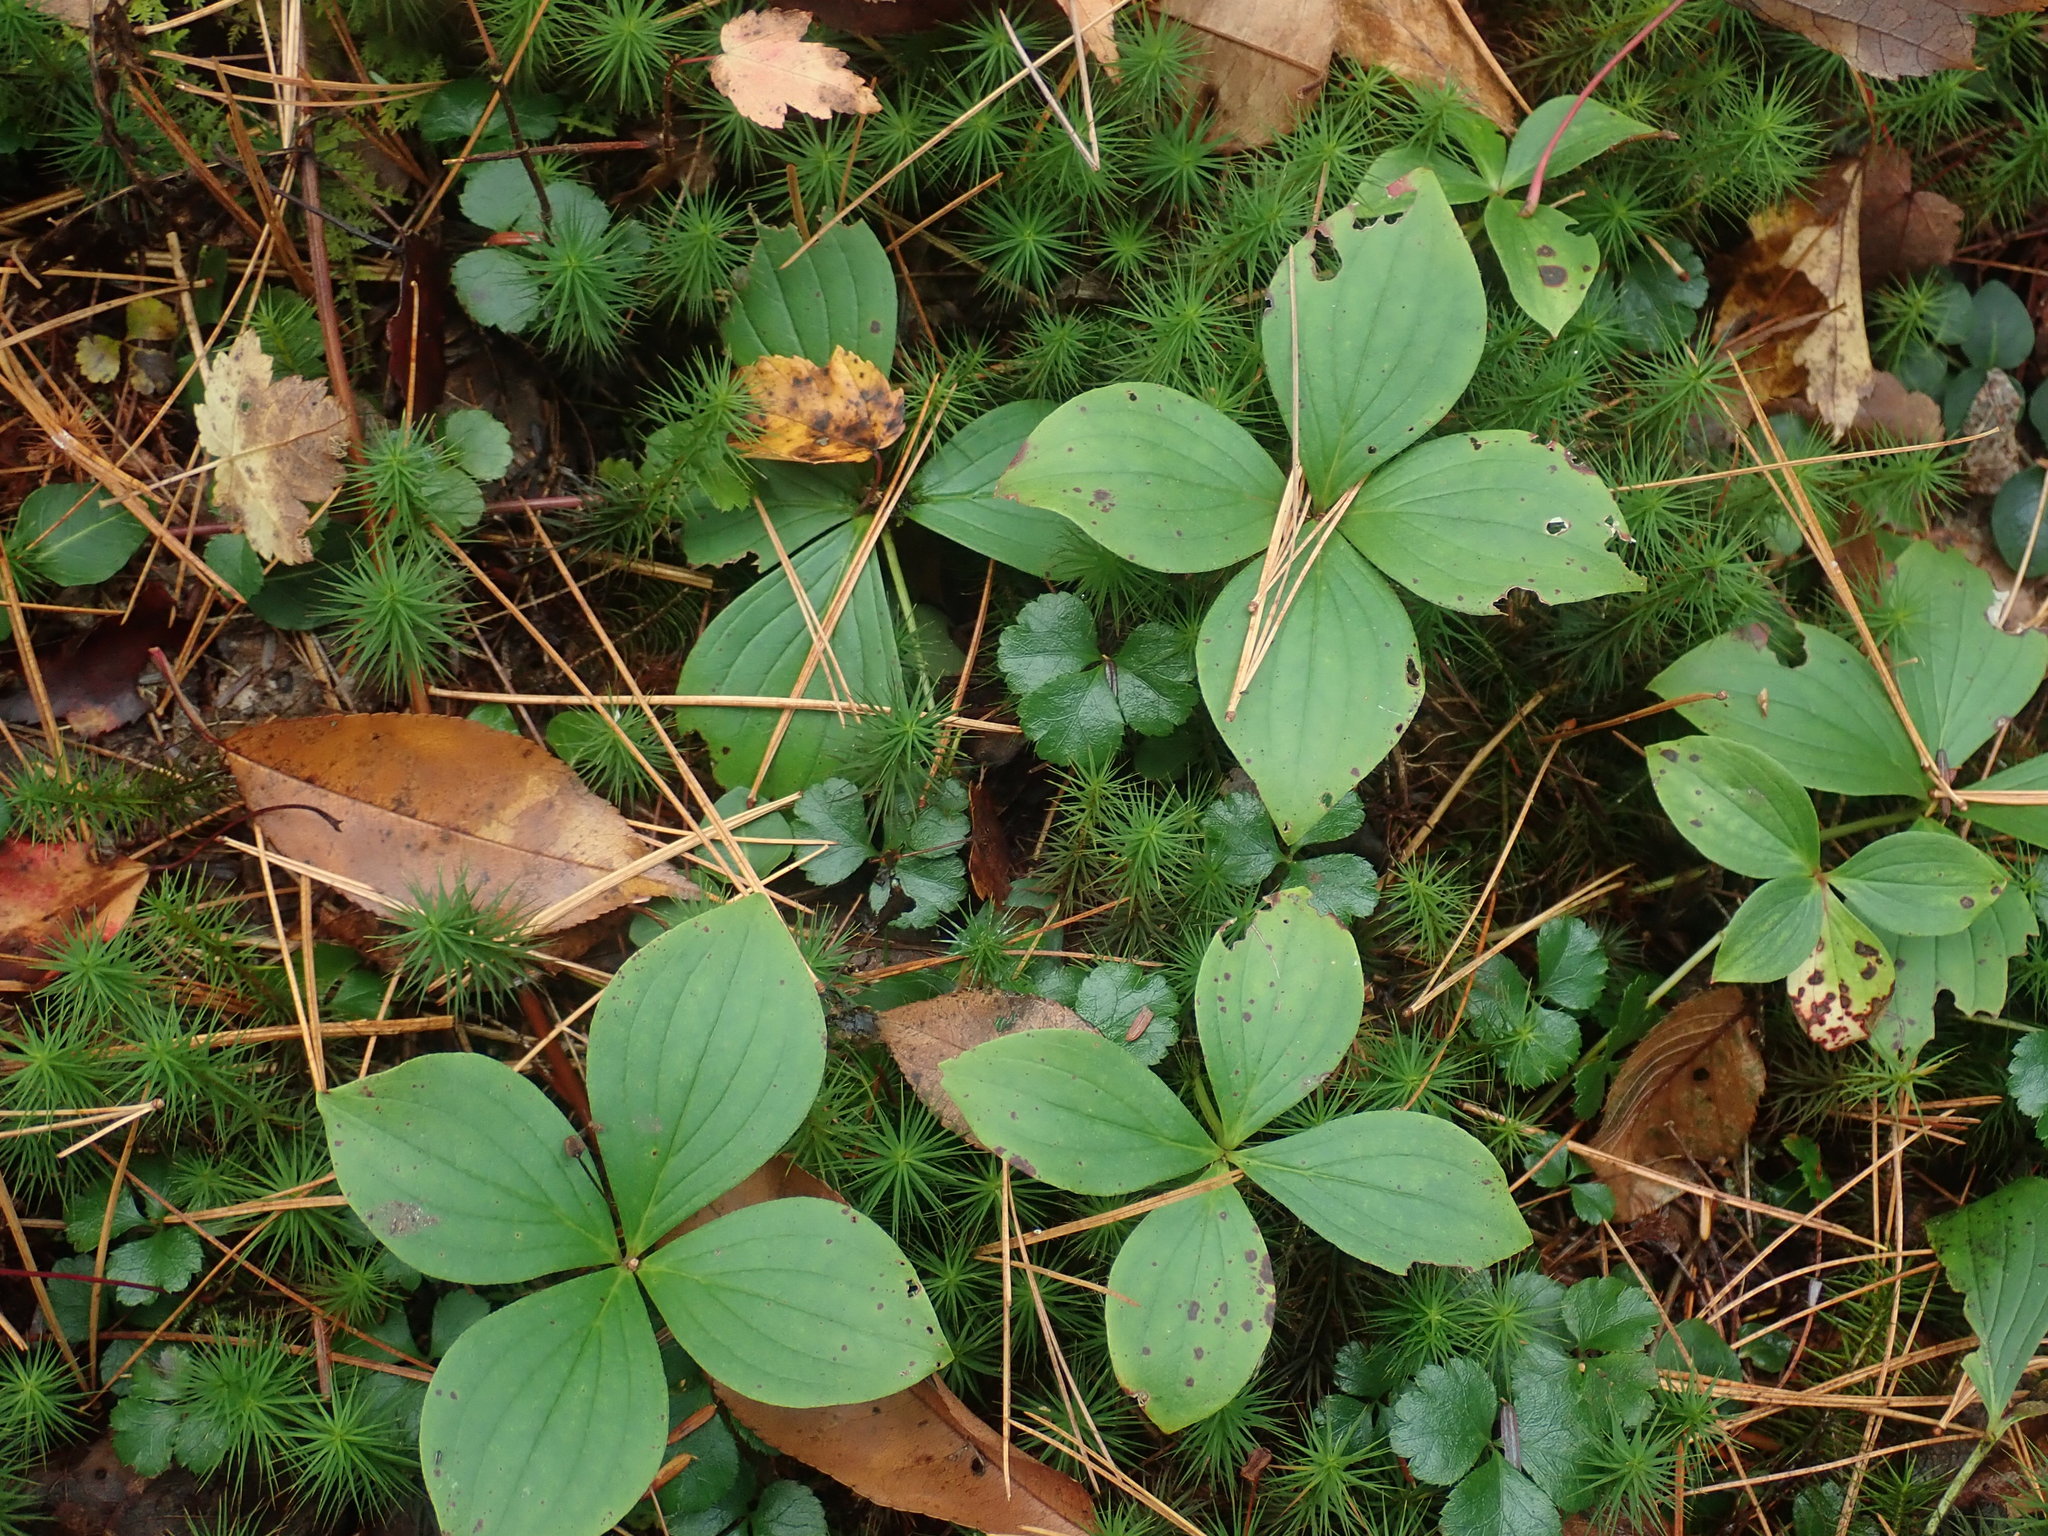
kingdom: Plantae
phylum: Tracheophyta
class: Magnoliopsida
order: Cornales
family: Cornaceae
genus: Cornus
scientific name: Cornus canadensis
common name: Creeping dogwood
